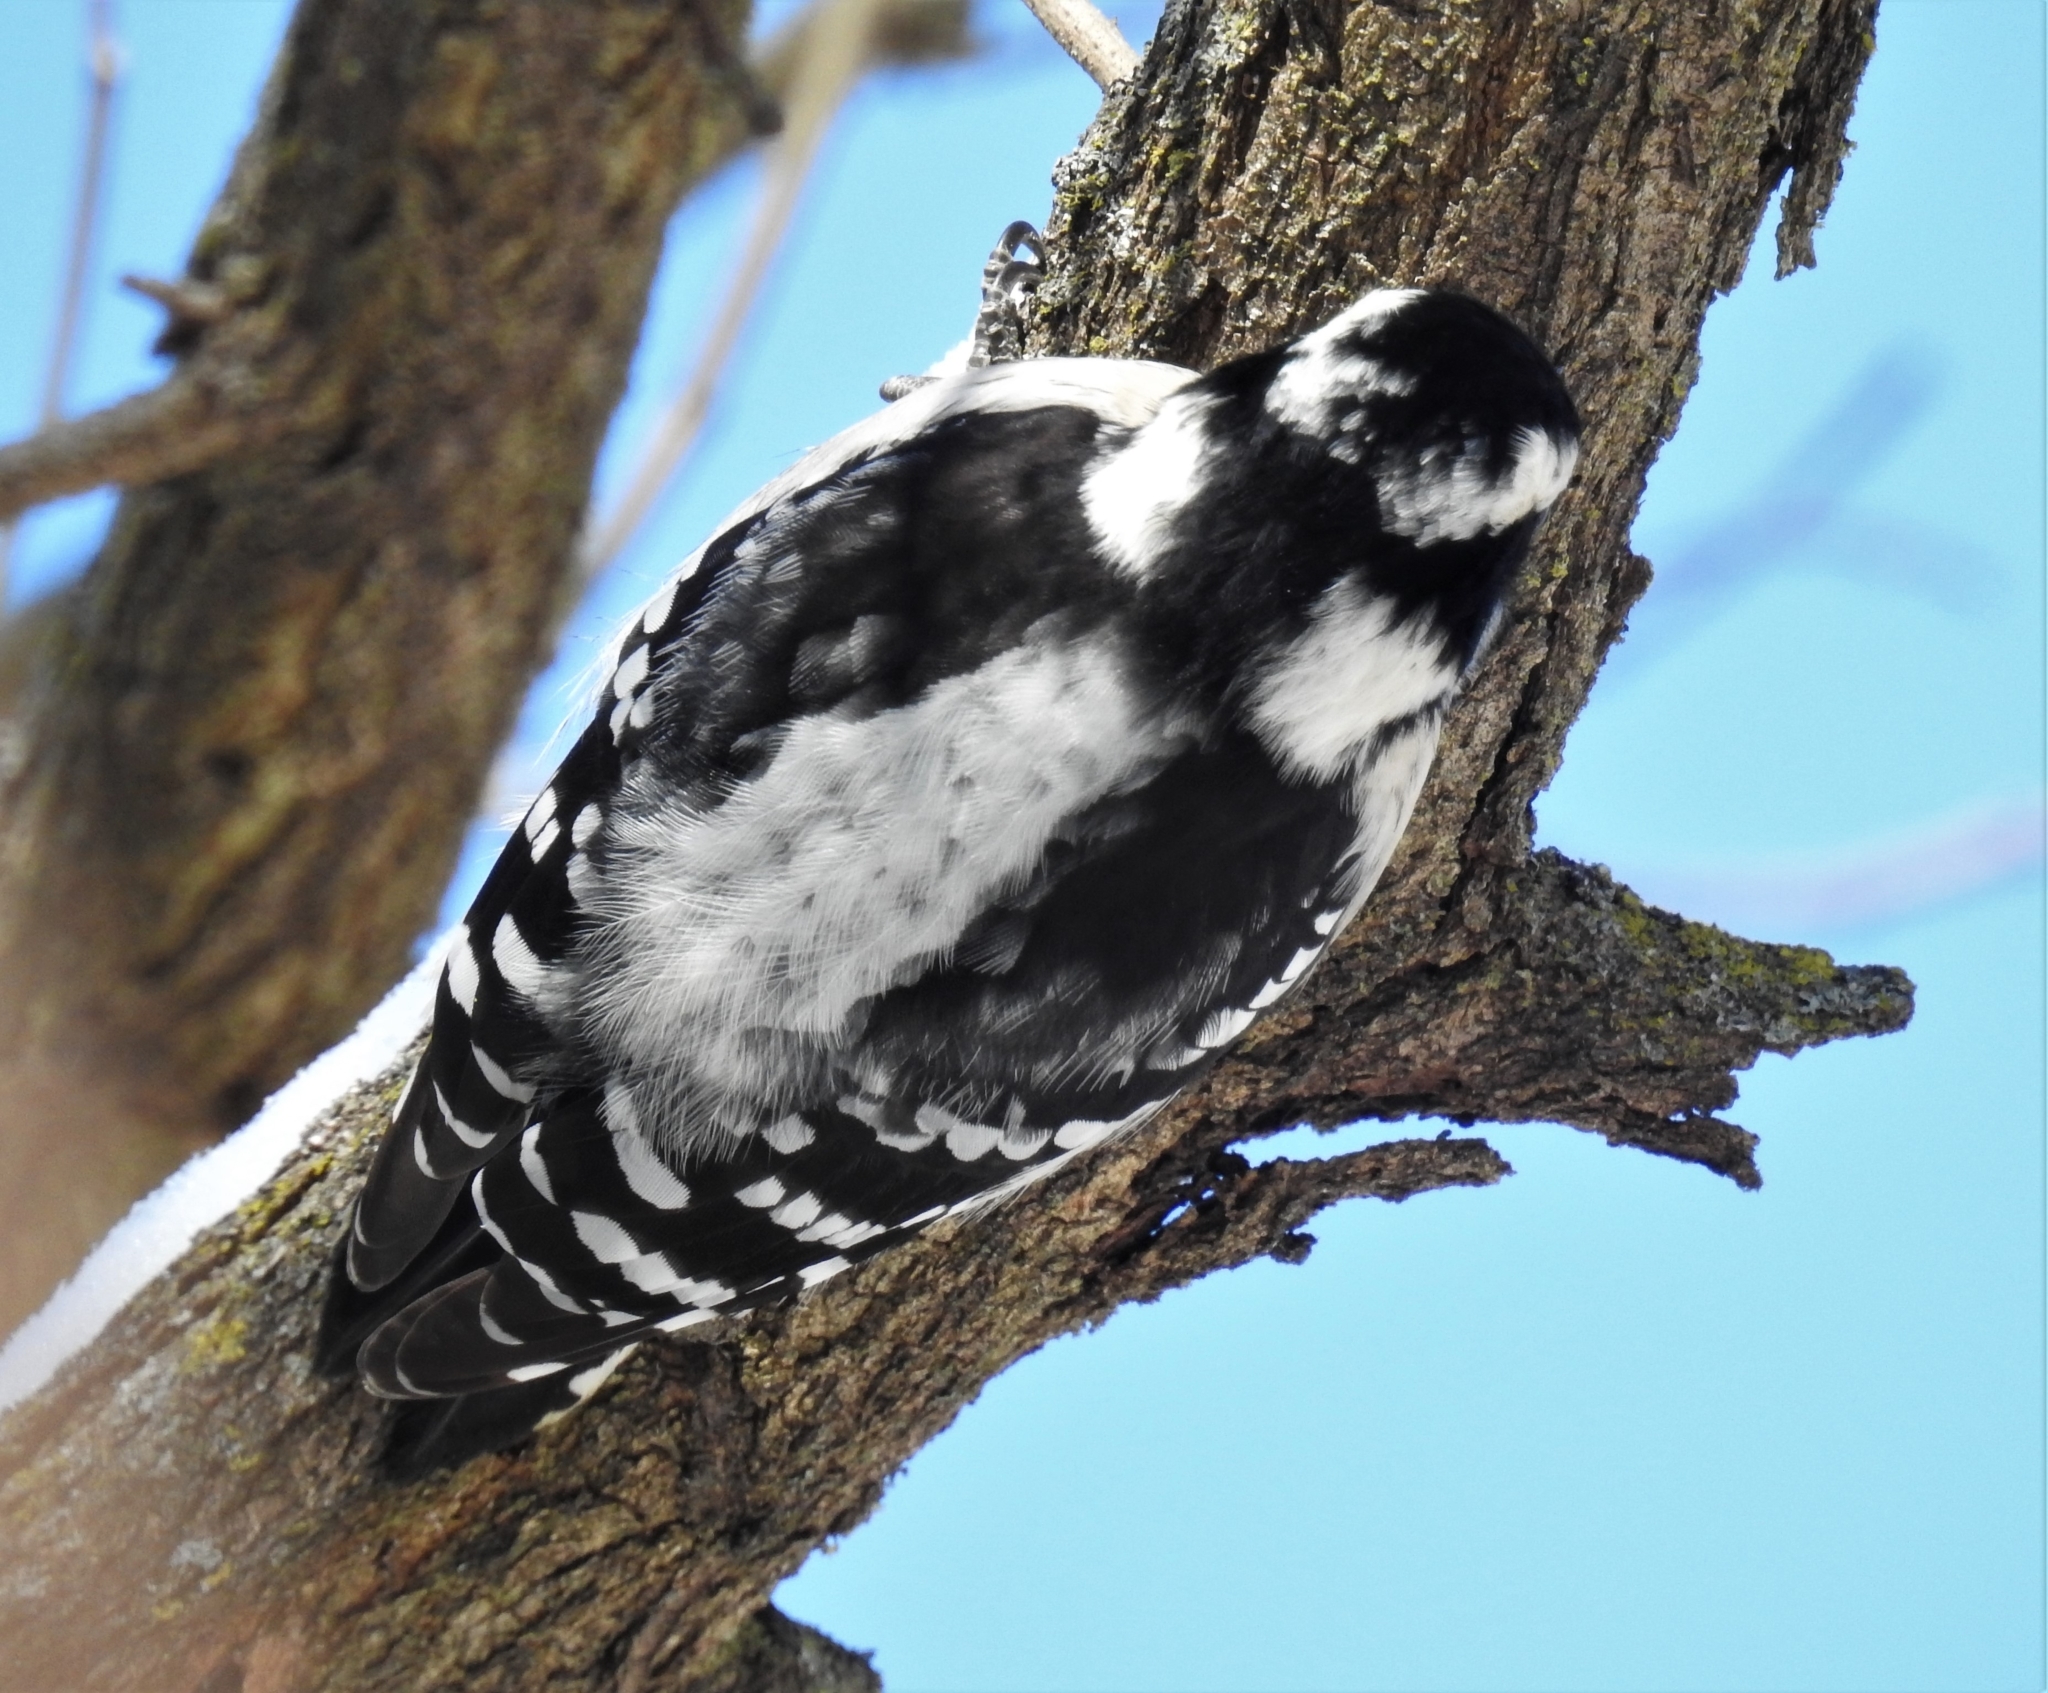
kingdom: Animalia
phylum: Chordata
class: Aves
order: Piciformes
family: Picidae
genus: Dryobates
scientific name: Dryobates pubescens
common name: Downy woodpecker
